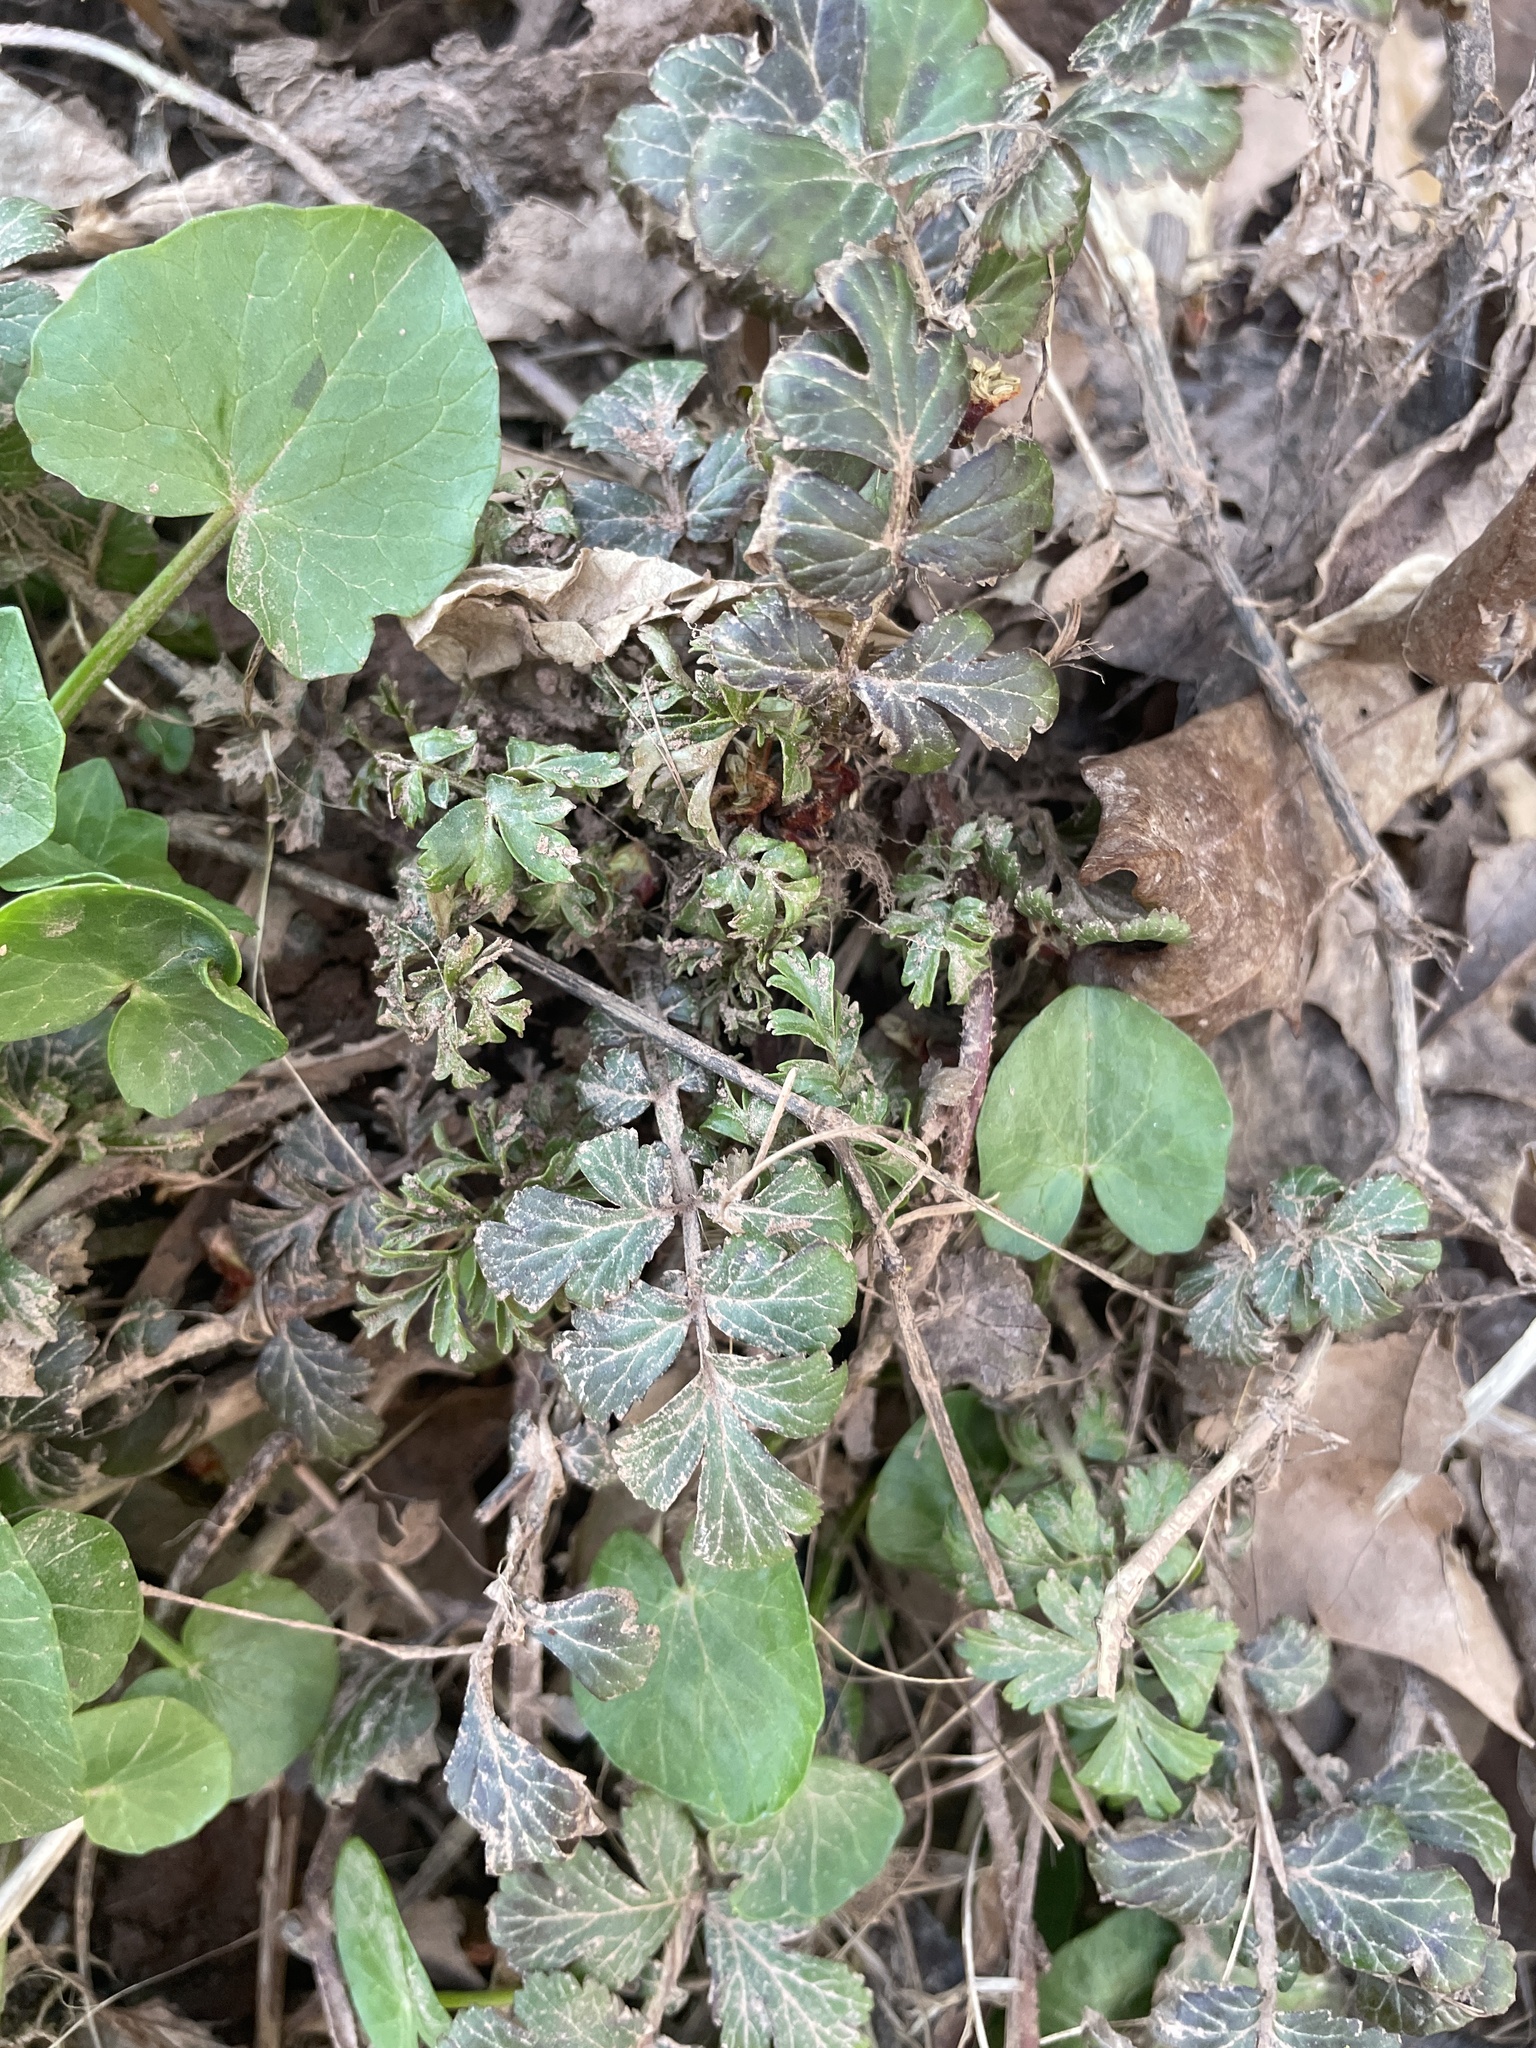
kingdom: Plantae
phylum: Tracheophyta
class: Magnoliopsida
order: Rosales
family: Rosaceae
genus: Geum
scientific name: Geum canadense
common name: White avens
